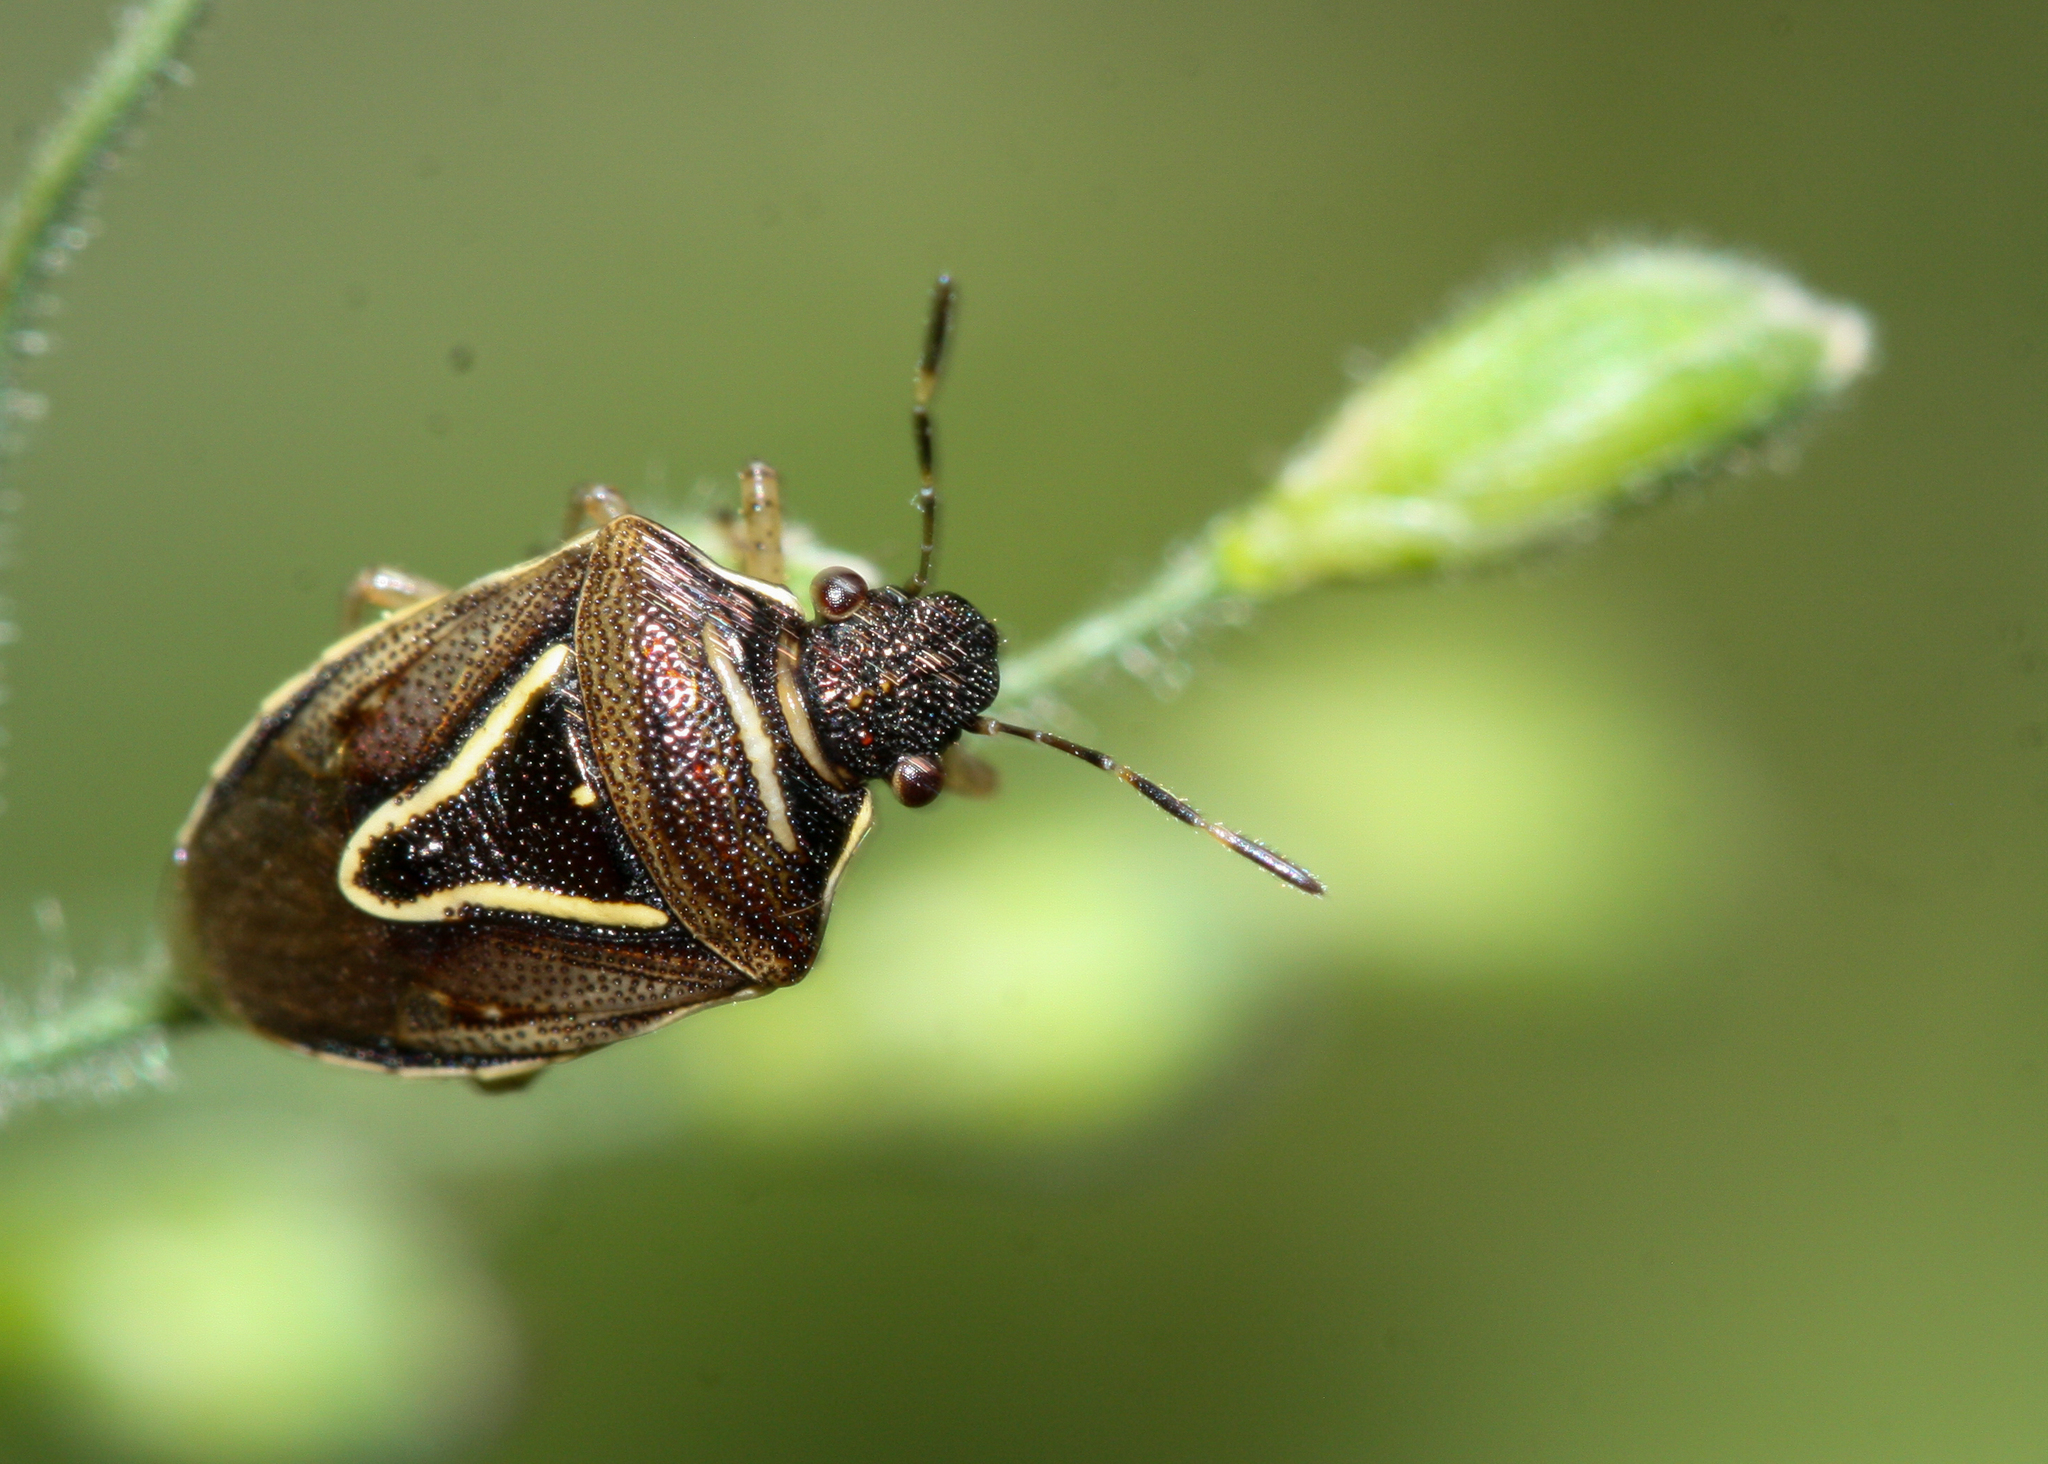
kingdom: Animalia
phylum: Arthropoda
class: Insecta
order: Hemiptera
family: Pentatomidae
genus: Mormidea
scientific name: Mormidea lugens
